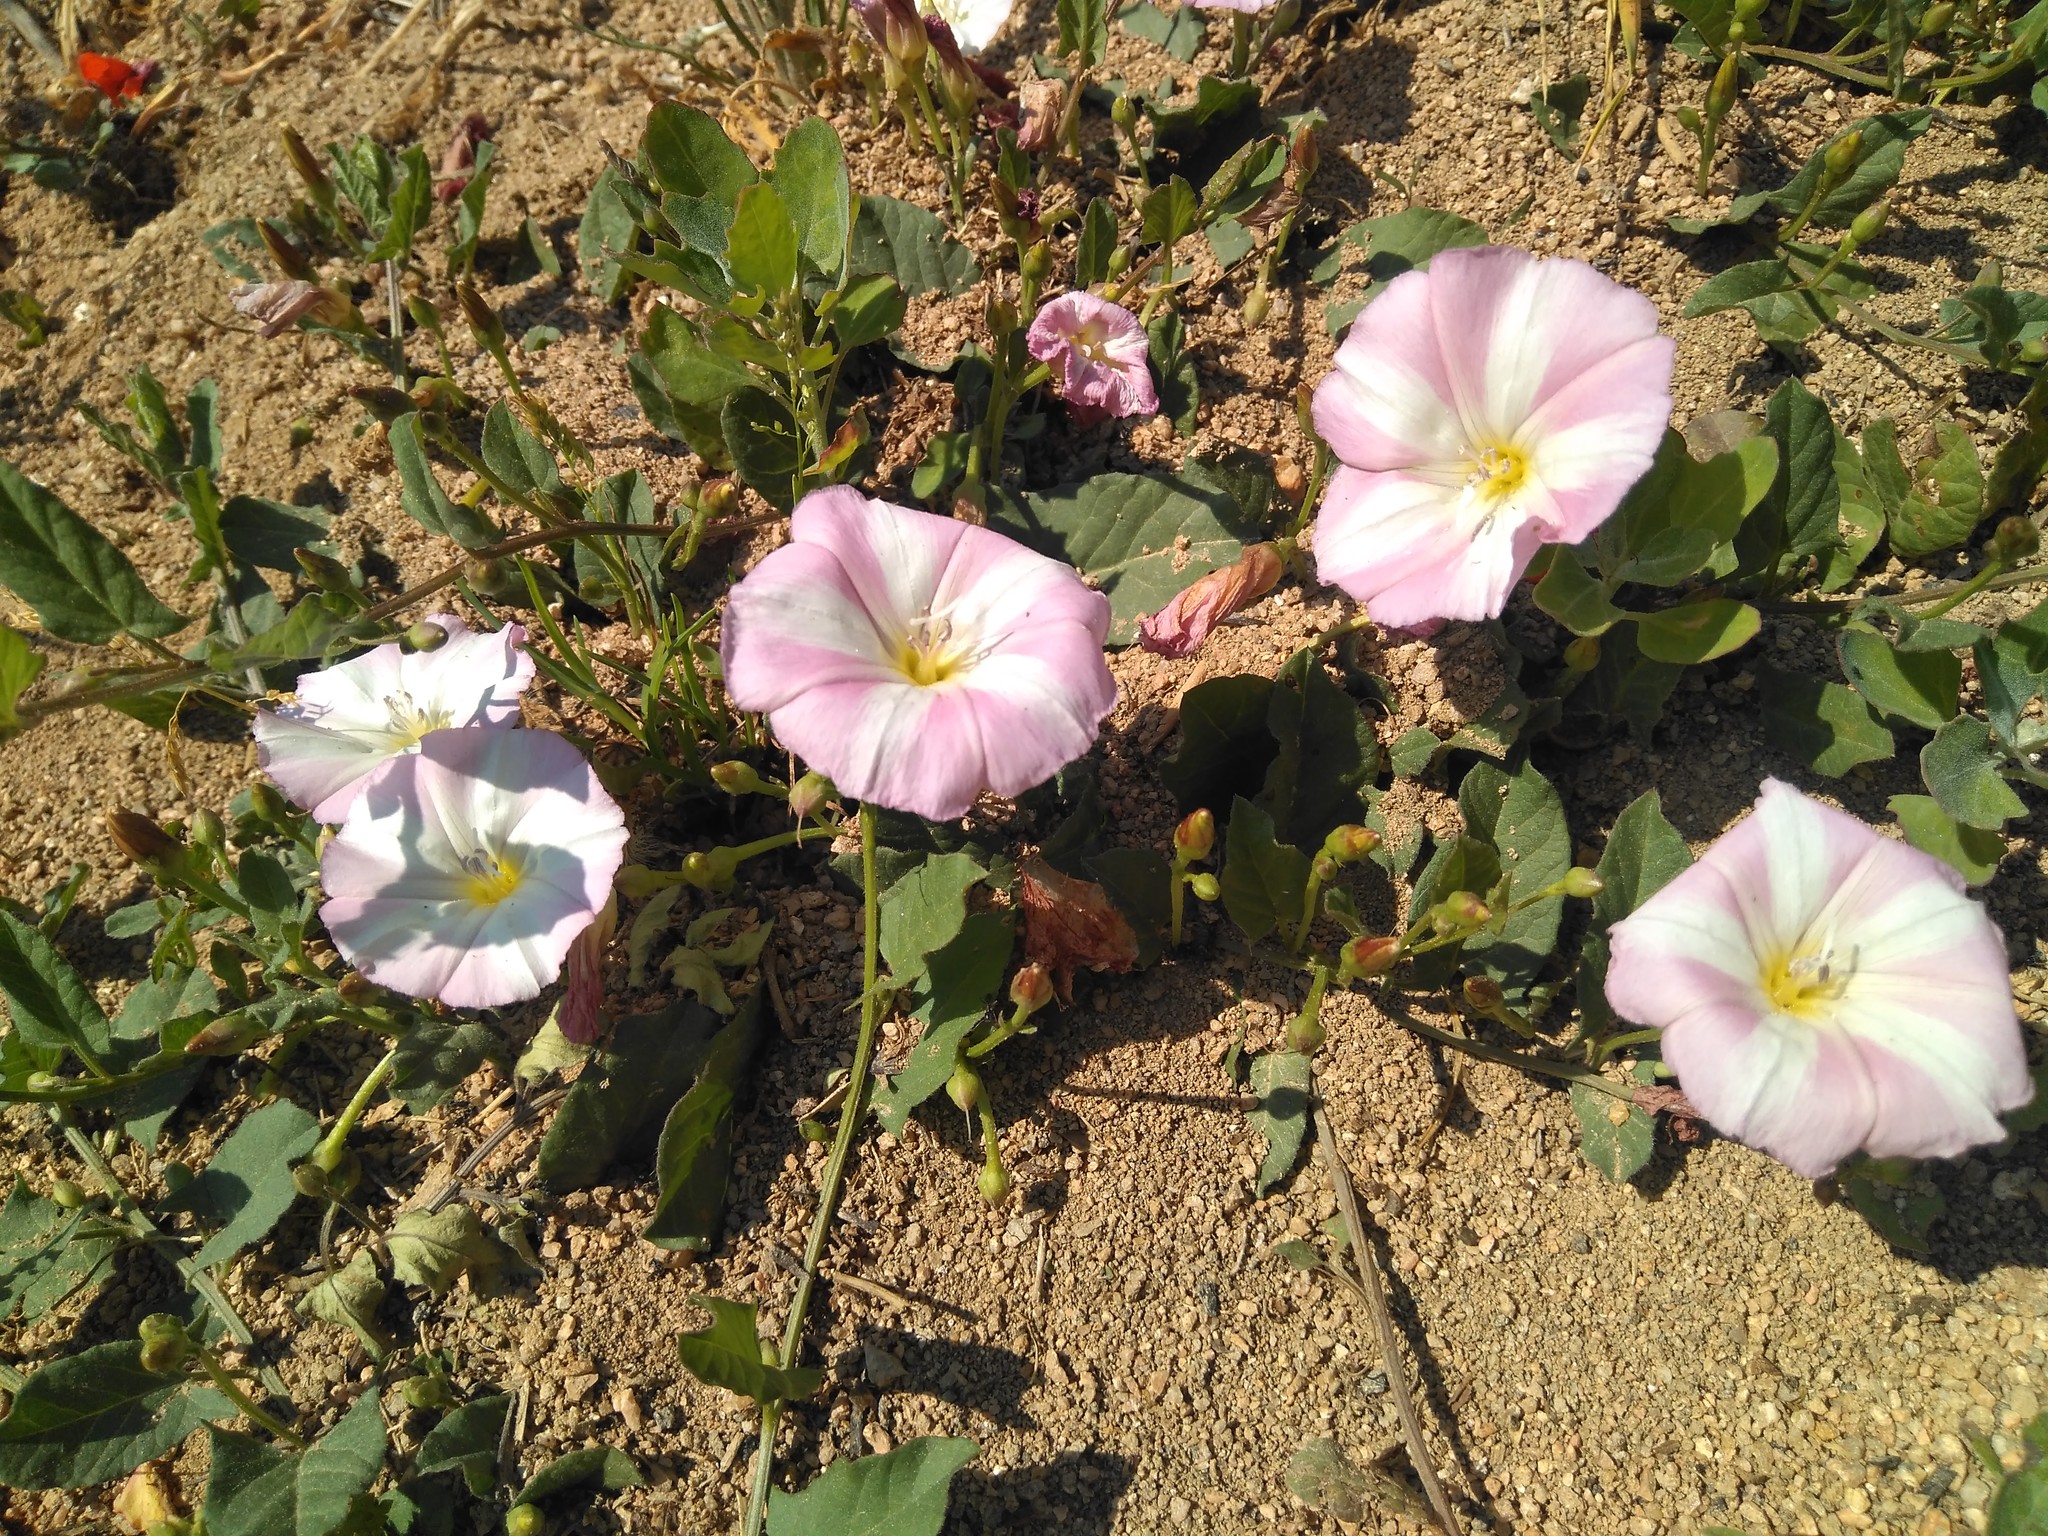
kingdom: Plantae
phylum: Tracheophyta
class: Magnoliopsida
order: Solanales
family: Convolvulaceae
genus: Convolvulus
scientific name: Convolvulus arvensis
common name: Field bindweed
